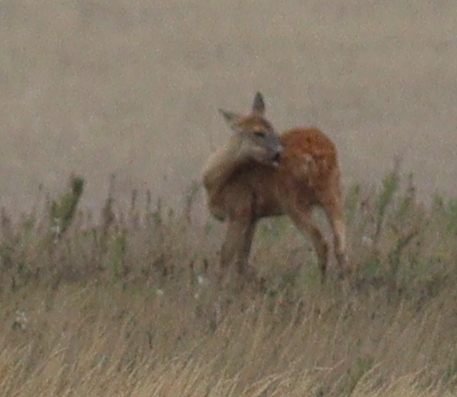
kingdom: Animalia
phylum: Chordata
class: Mammalia
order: Artiodactyla
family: Cervidae
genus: Capreolus
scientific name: Capreolus capreolus
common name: Western roe deer
